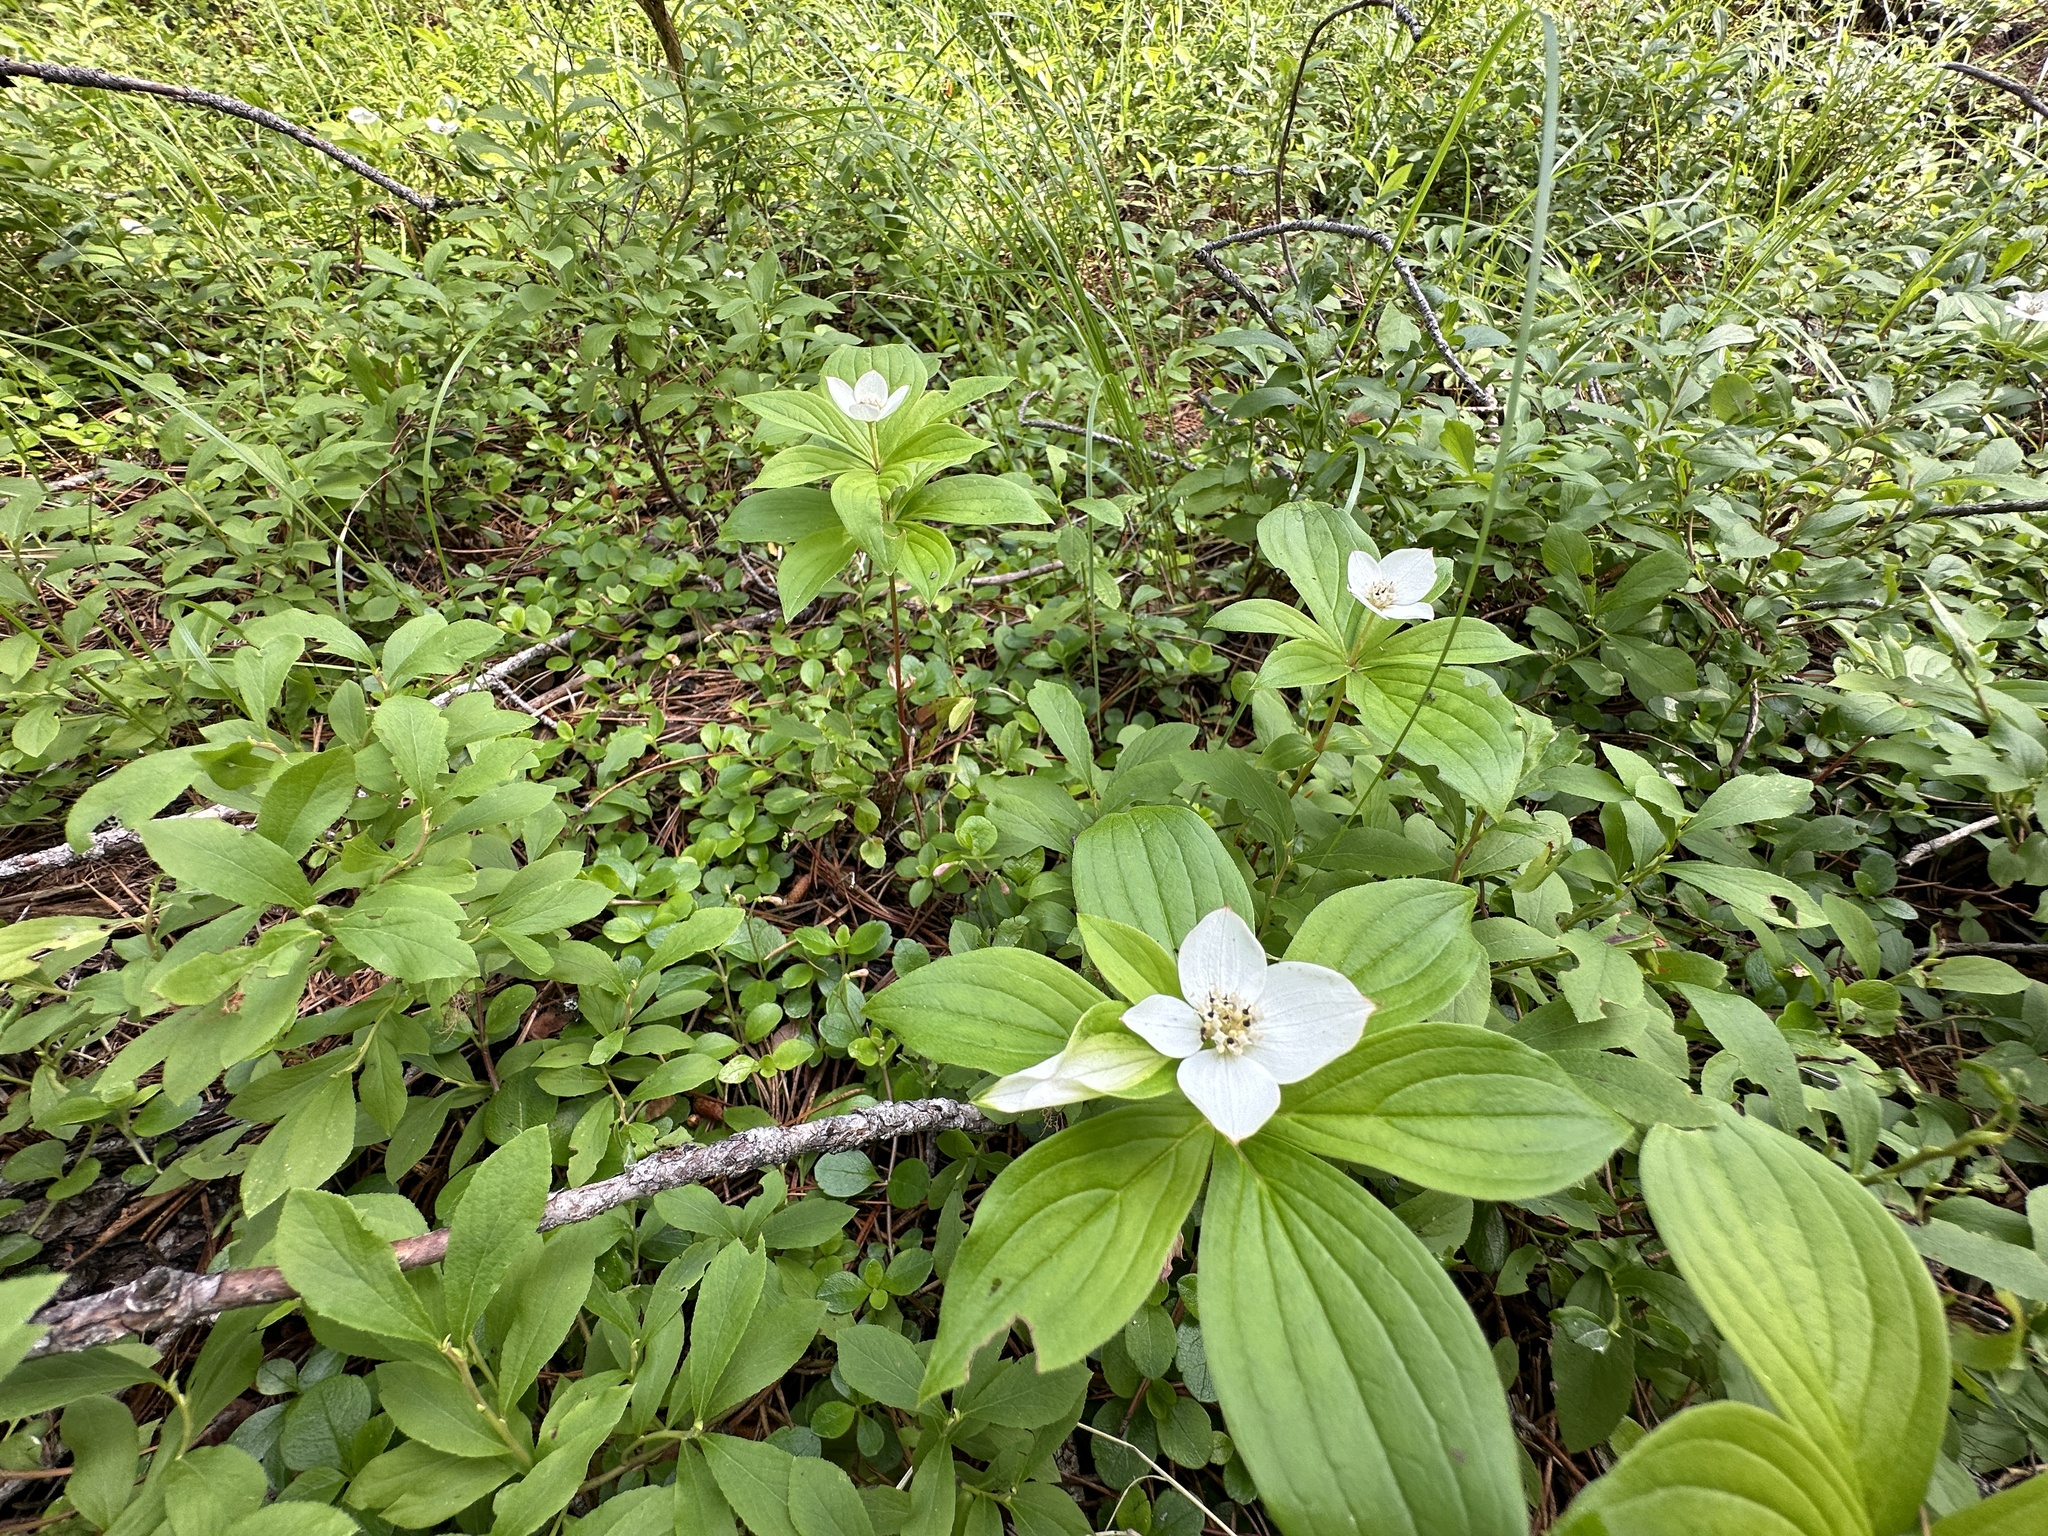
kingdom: Plantae
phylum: Tracheophyta
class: Magnoliopsida
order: Cornales
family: Cornaceae
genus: Cornus
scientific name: Cornus canadensis
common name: Creeping dogwood
